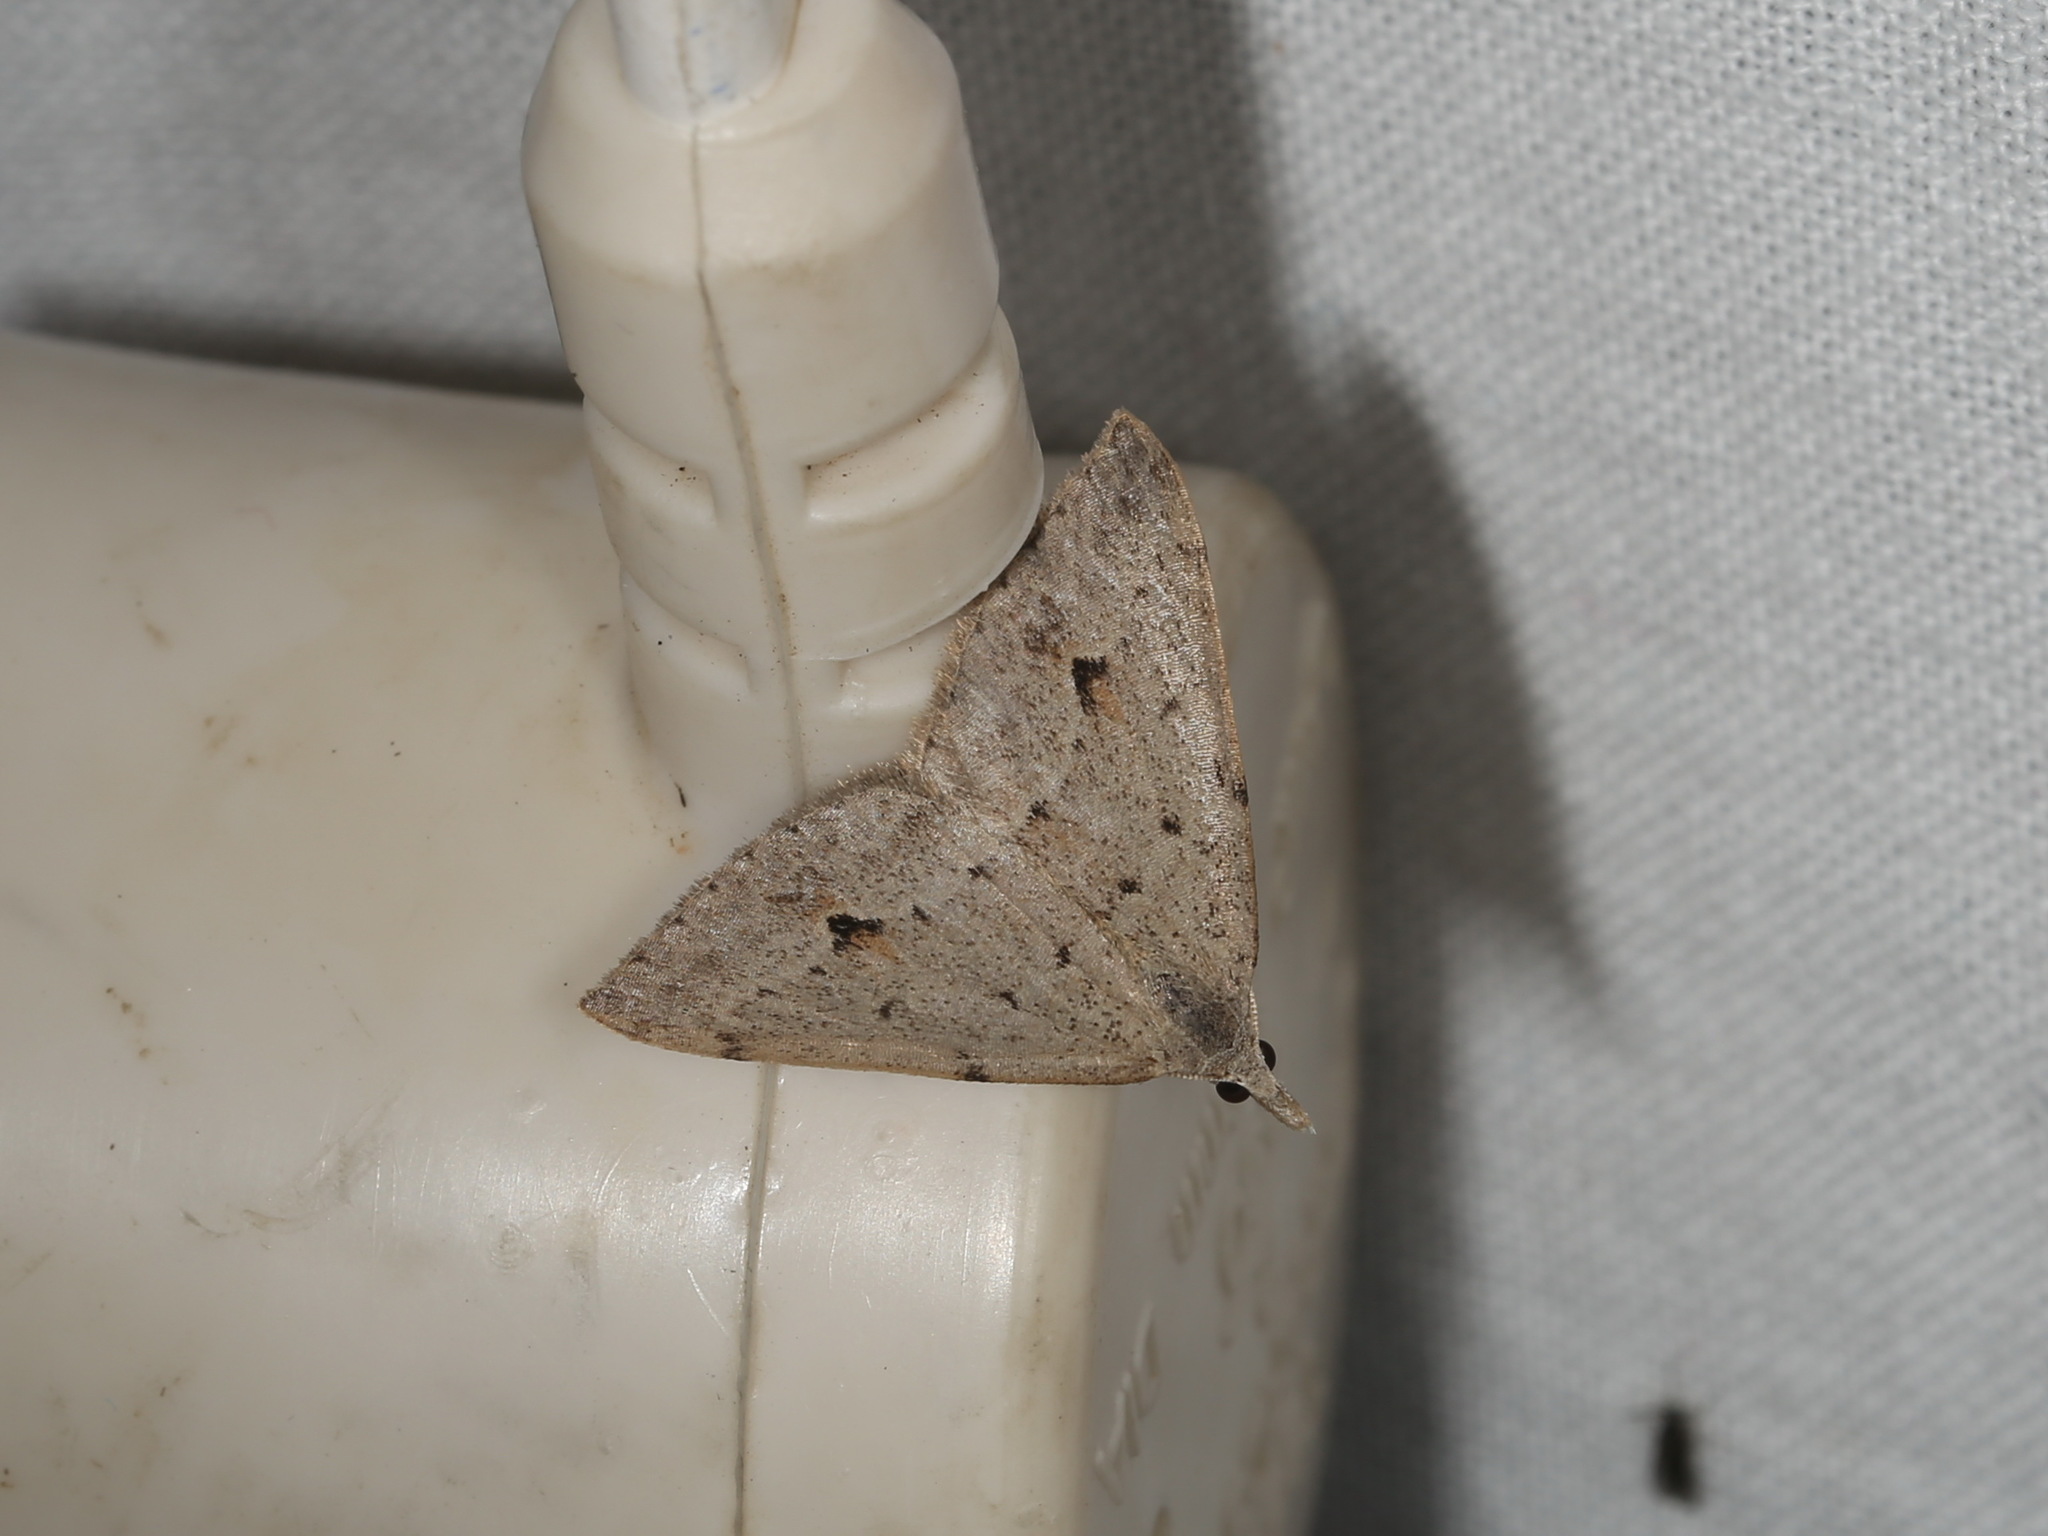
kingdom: Animalia
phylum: Arthropoda
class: Insecta
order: Lepidoptera
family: Geometridae
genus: Dichromodes
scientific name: Dichromodes estigmaria
